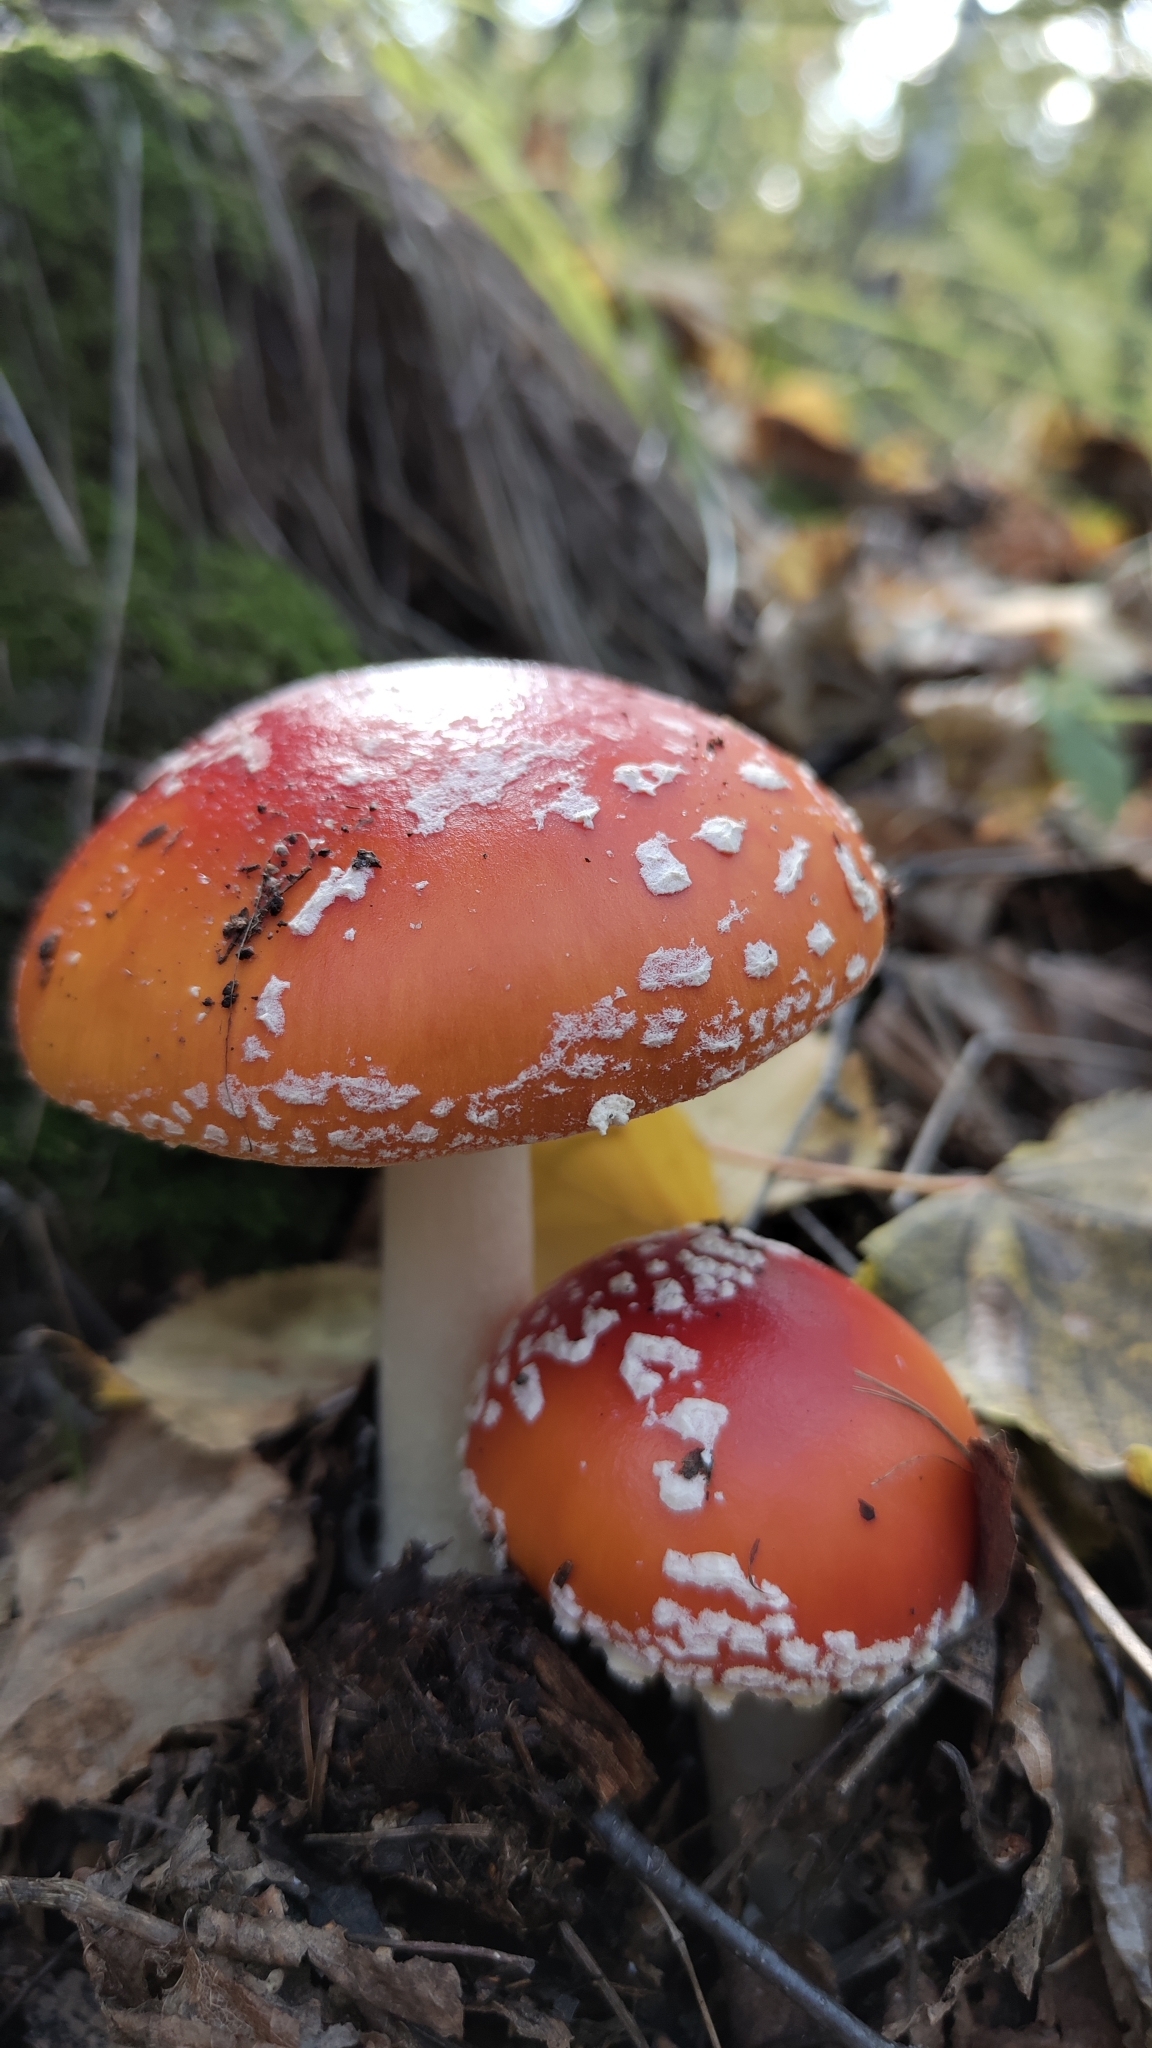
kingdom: Fungi
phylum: Basidiomycota
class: Agaricomycetes
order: Agaricales
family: Amanitaceae
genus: Amanita
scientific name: Amanita muscaria
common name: Fly agaric
